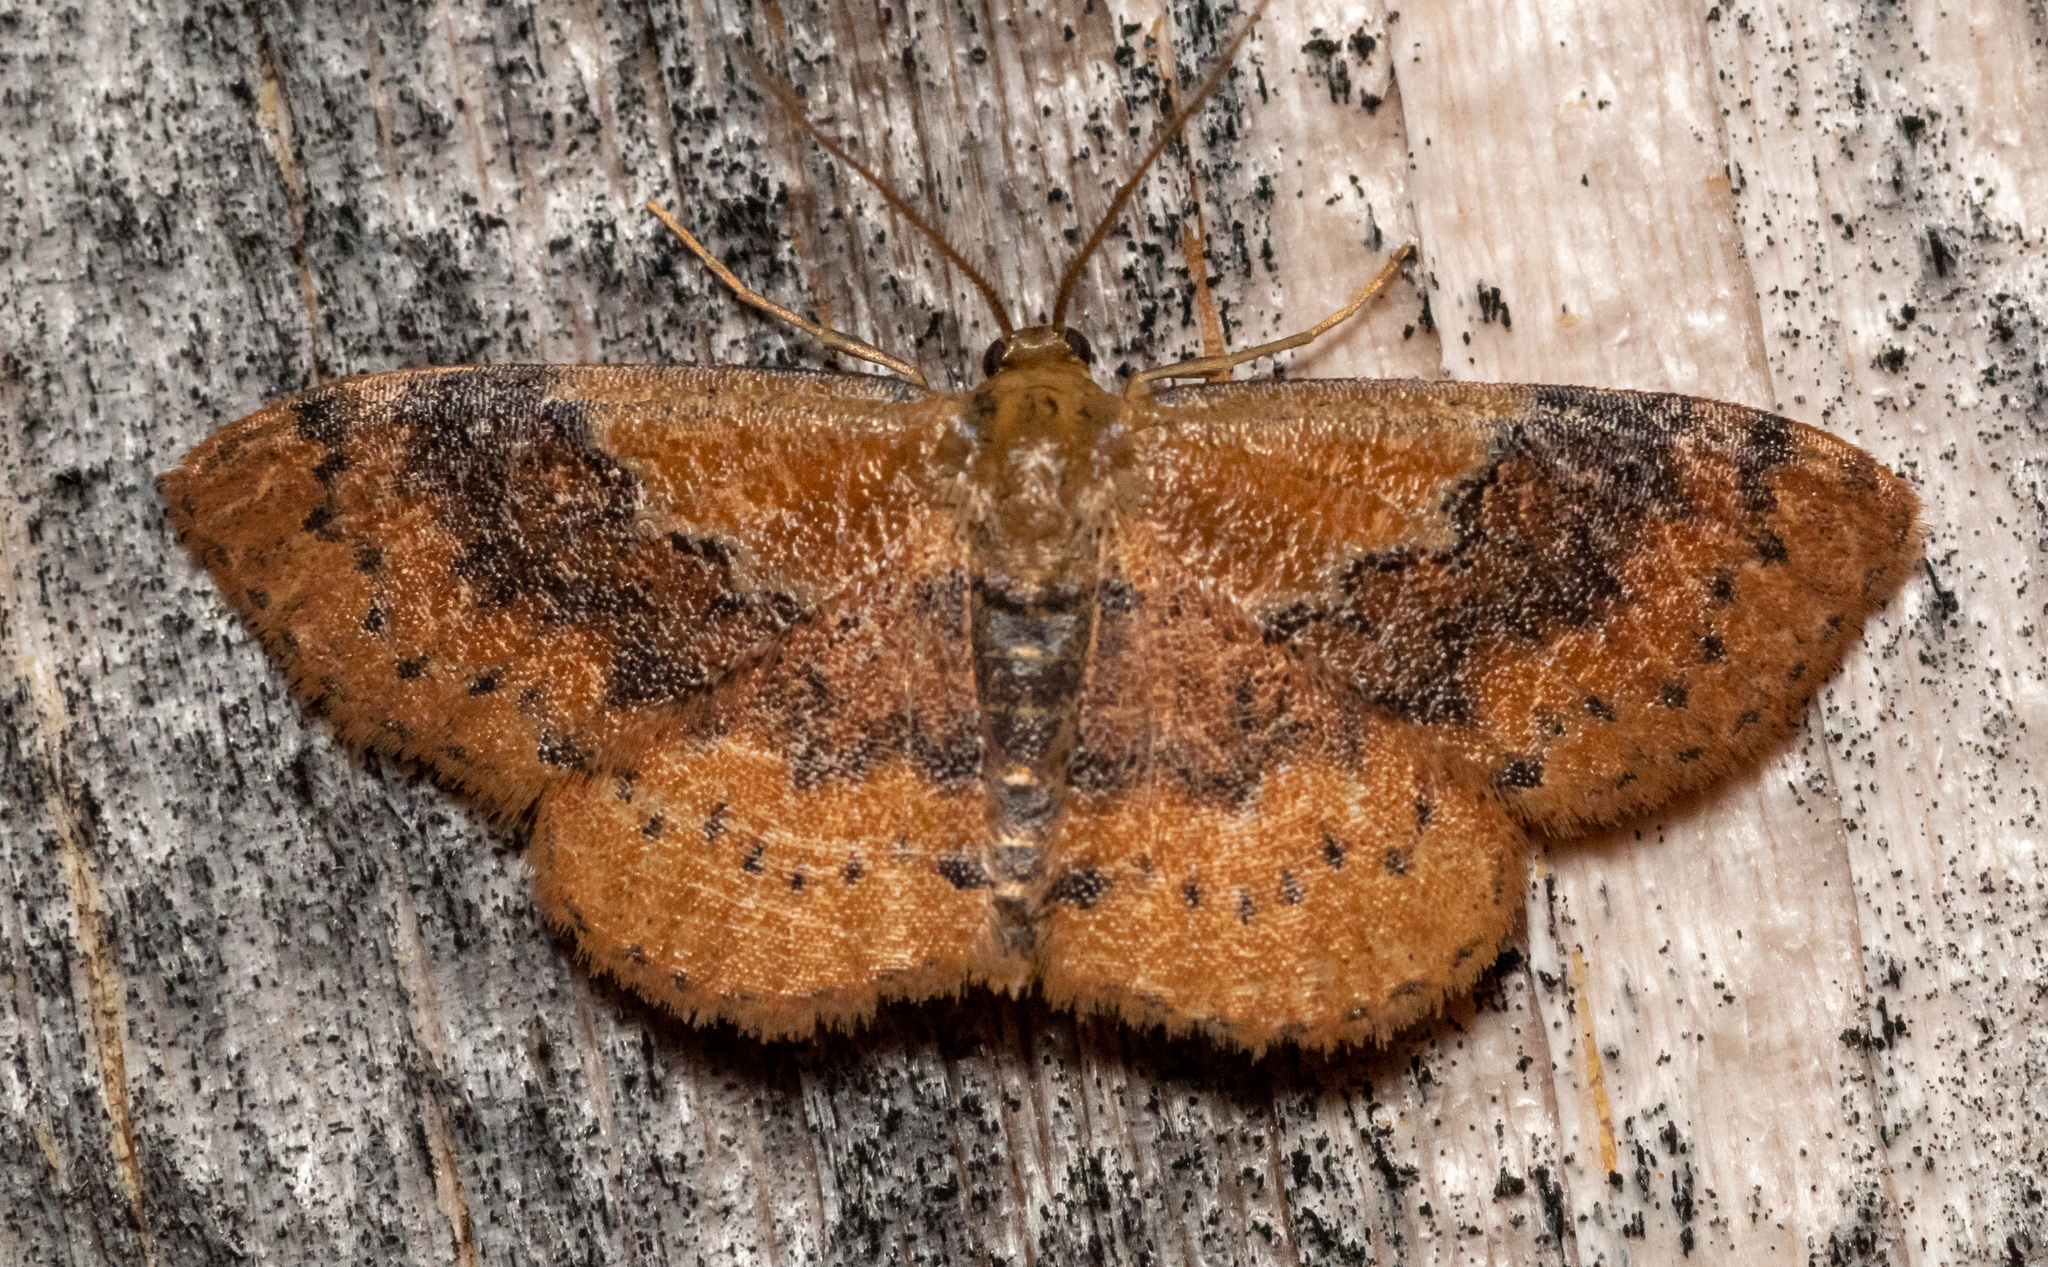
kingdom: Animalia
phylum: Arthropoda
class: Insecta
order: Lepidoptera
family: Geometridae
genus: Leptostales
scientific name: Leptostales ferruminaria
